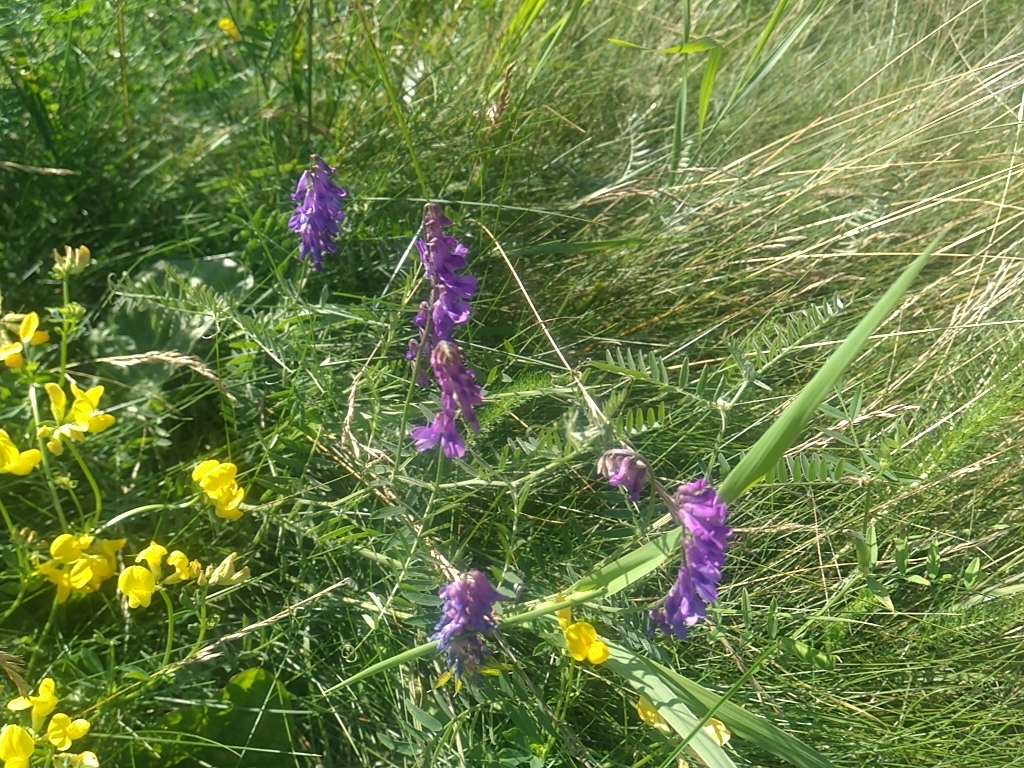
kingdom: Plantae
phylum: Tracheophyta
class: Magnoliopsida
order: Fabales
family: Fabaceae
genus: Vicia
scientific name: Vicia cracca
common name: Bird vetch
